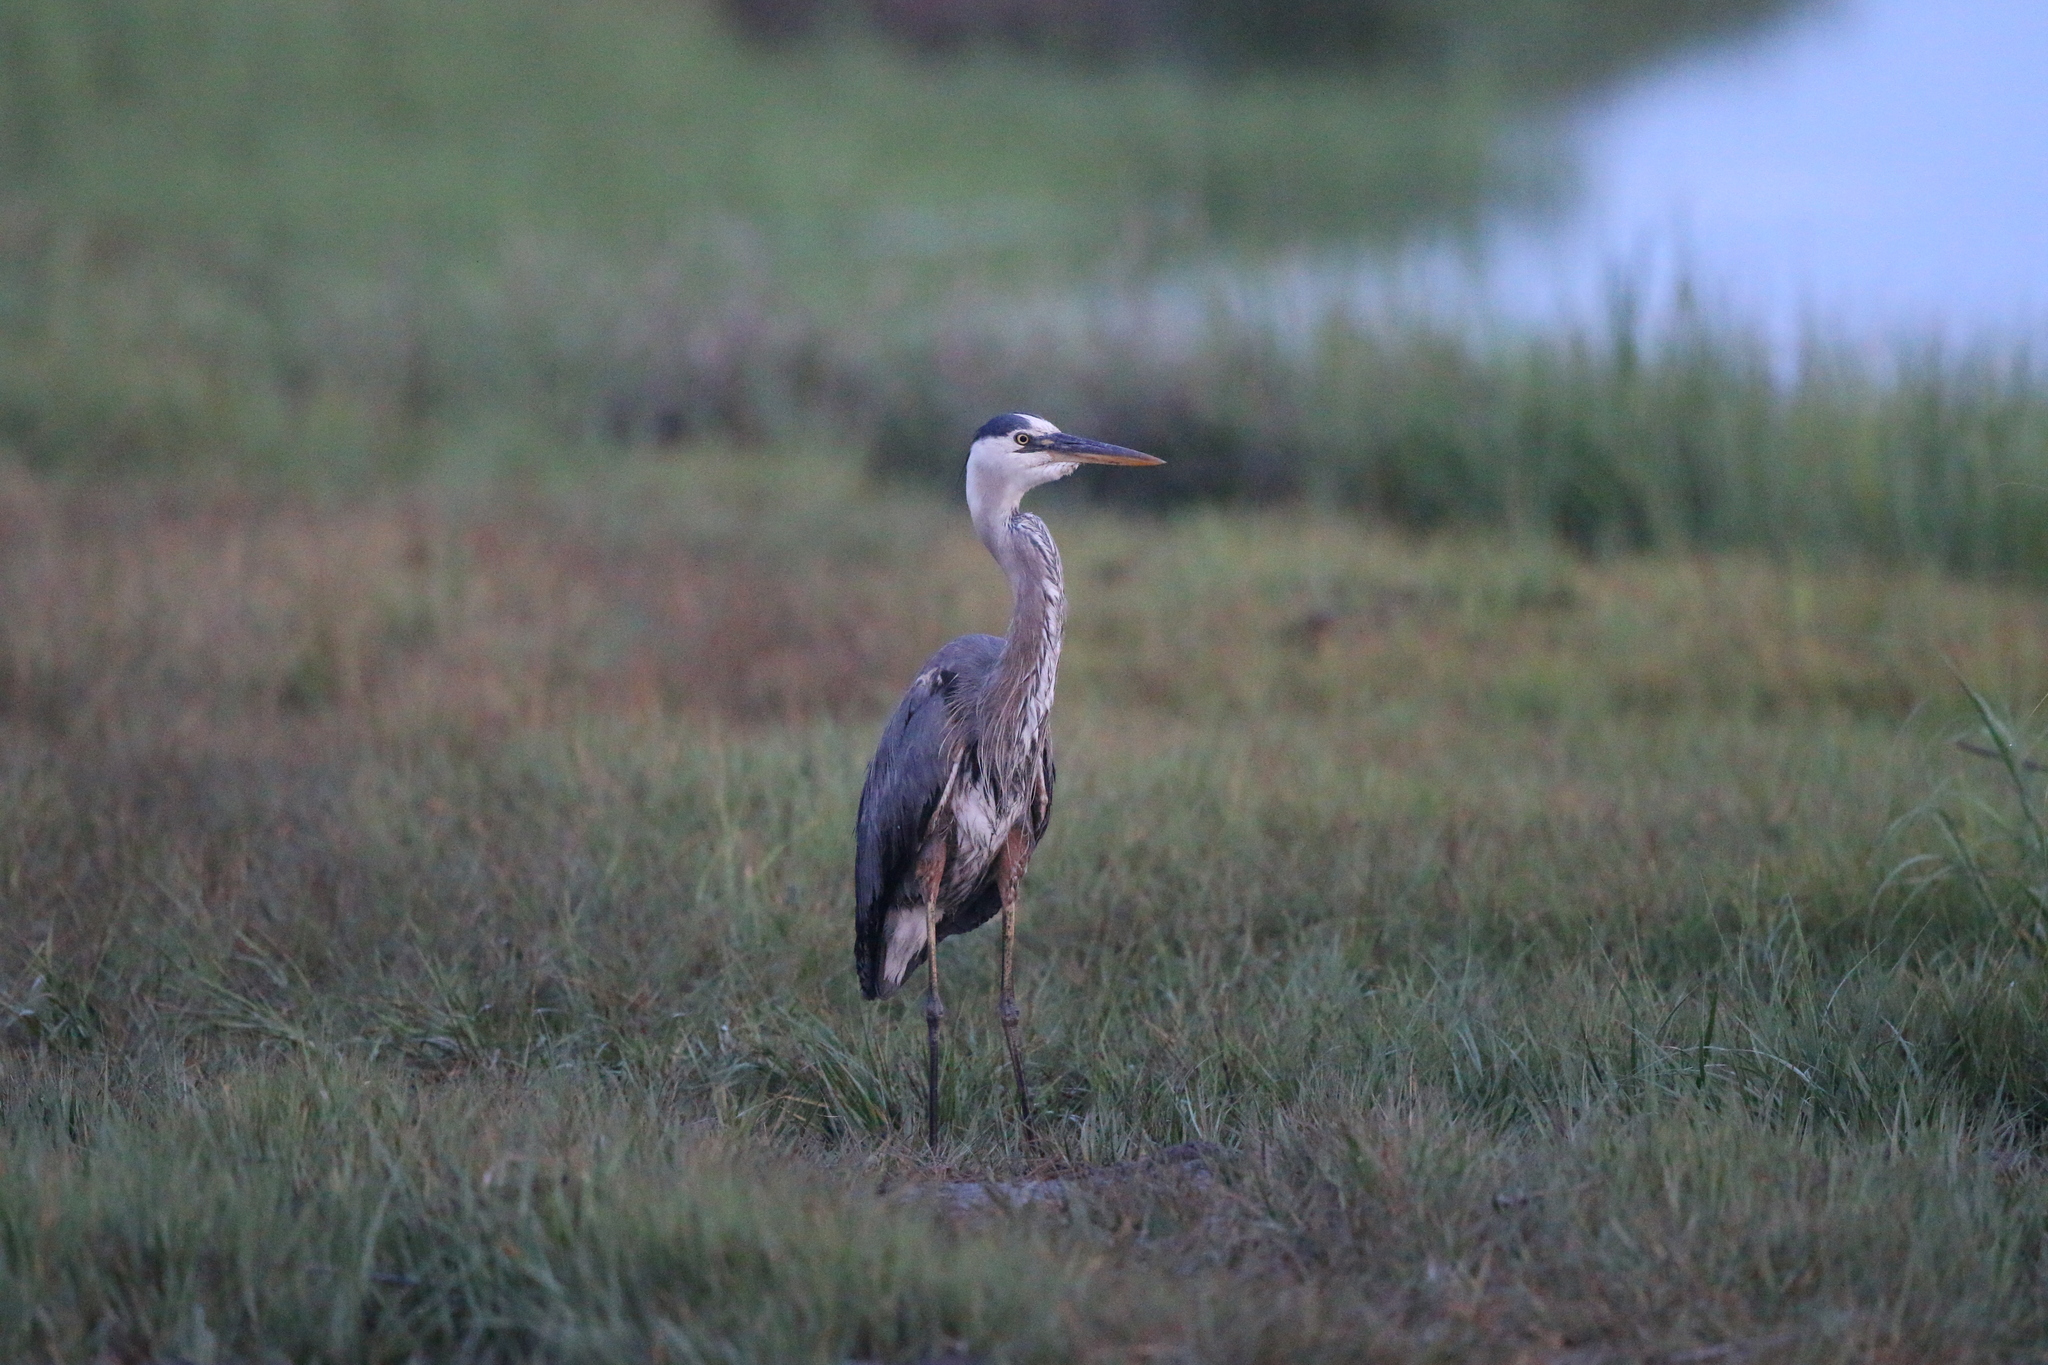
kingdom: Animalia
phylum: Chordata
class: Aves
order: Pelecaniformes
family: Ardeidae
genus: Ardea
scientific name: Ardea herodias
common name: Great blue heron
